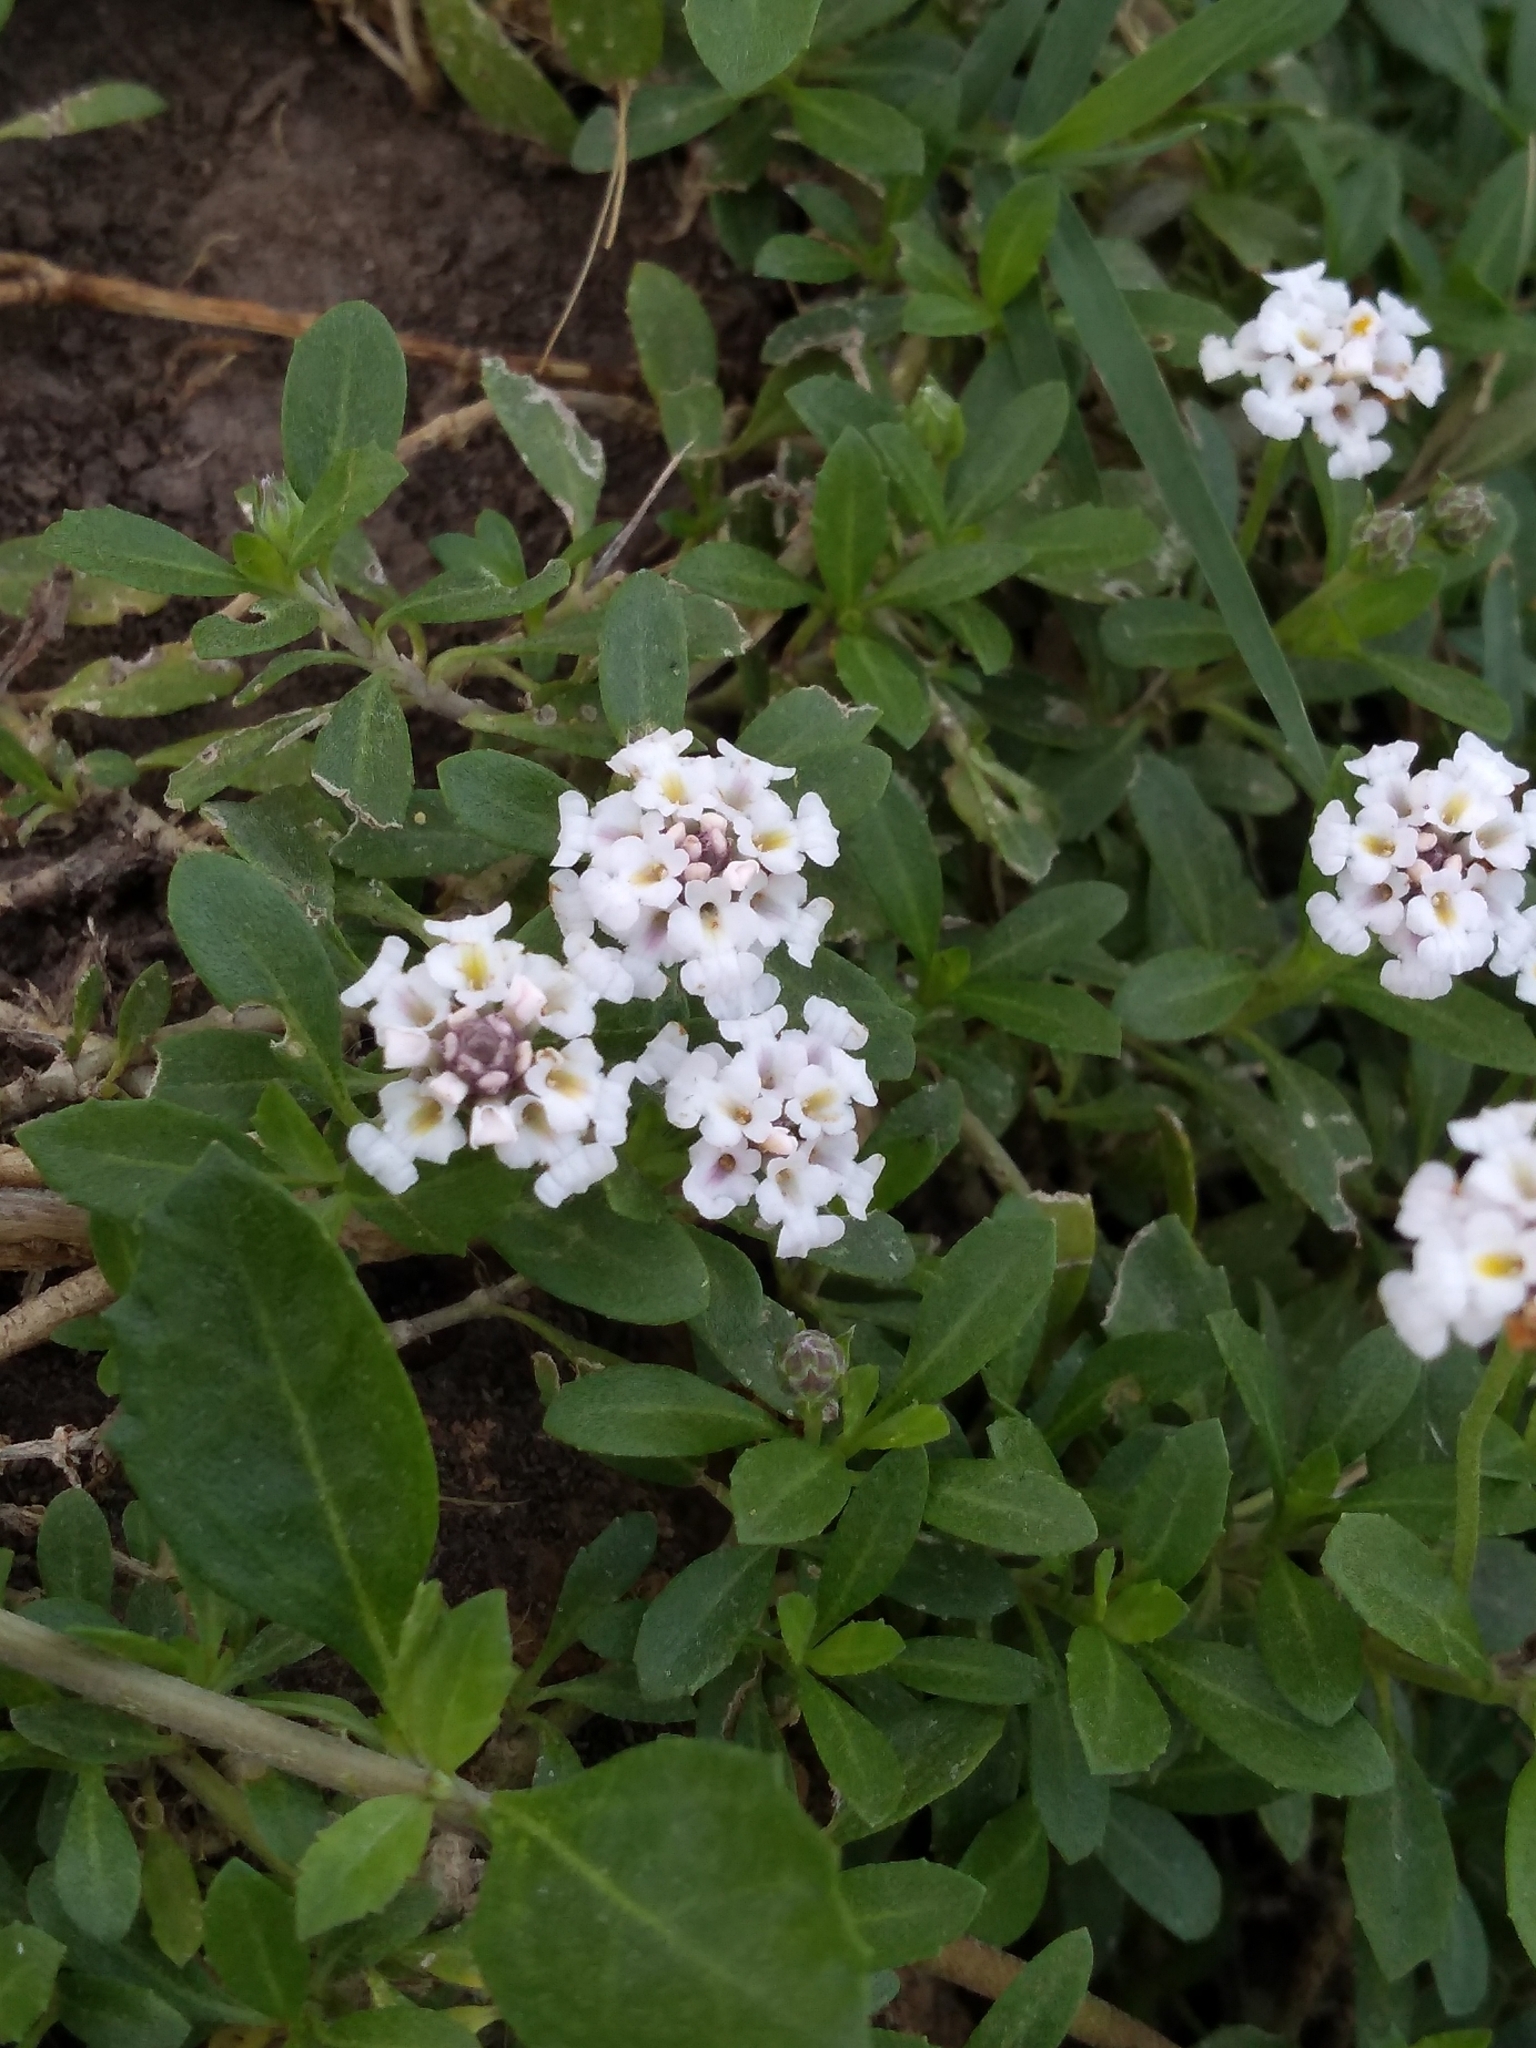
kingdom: Plantae
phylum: Tracheophyta
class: Magnoliopsida
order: Lamiales
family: Verbenaceae
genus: Phyla
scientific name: Phyla nodiflora
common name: Frogfruit
